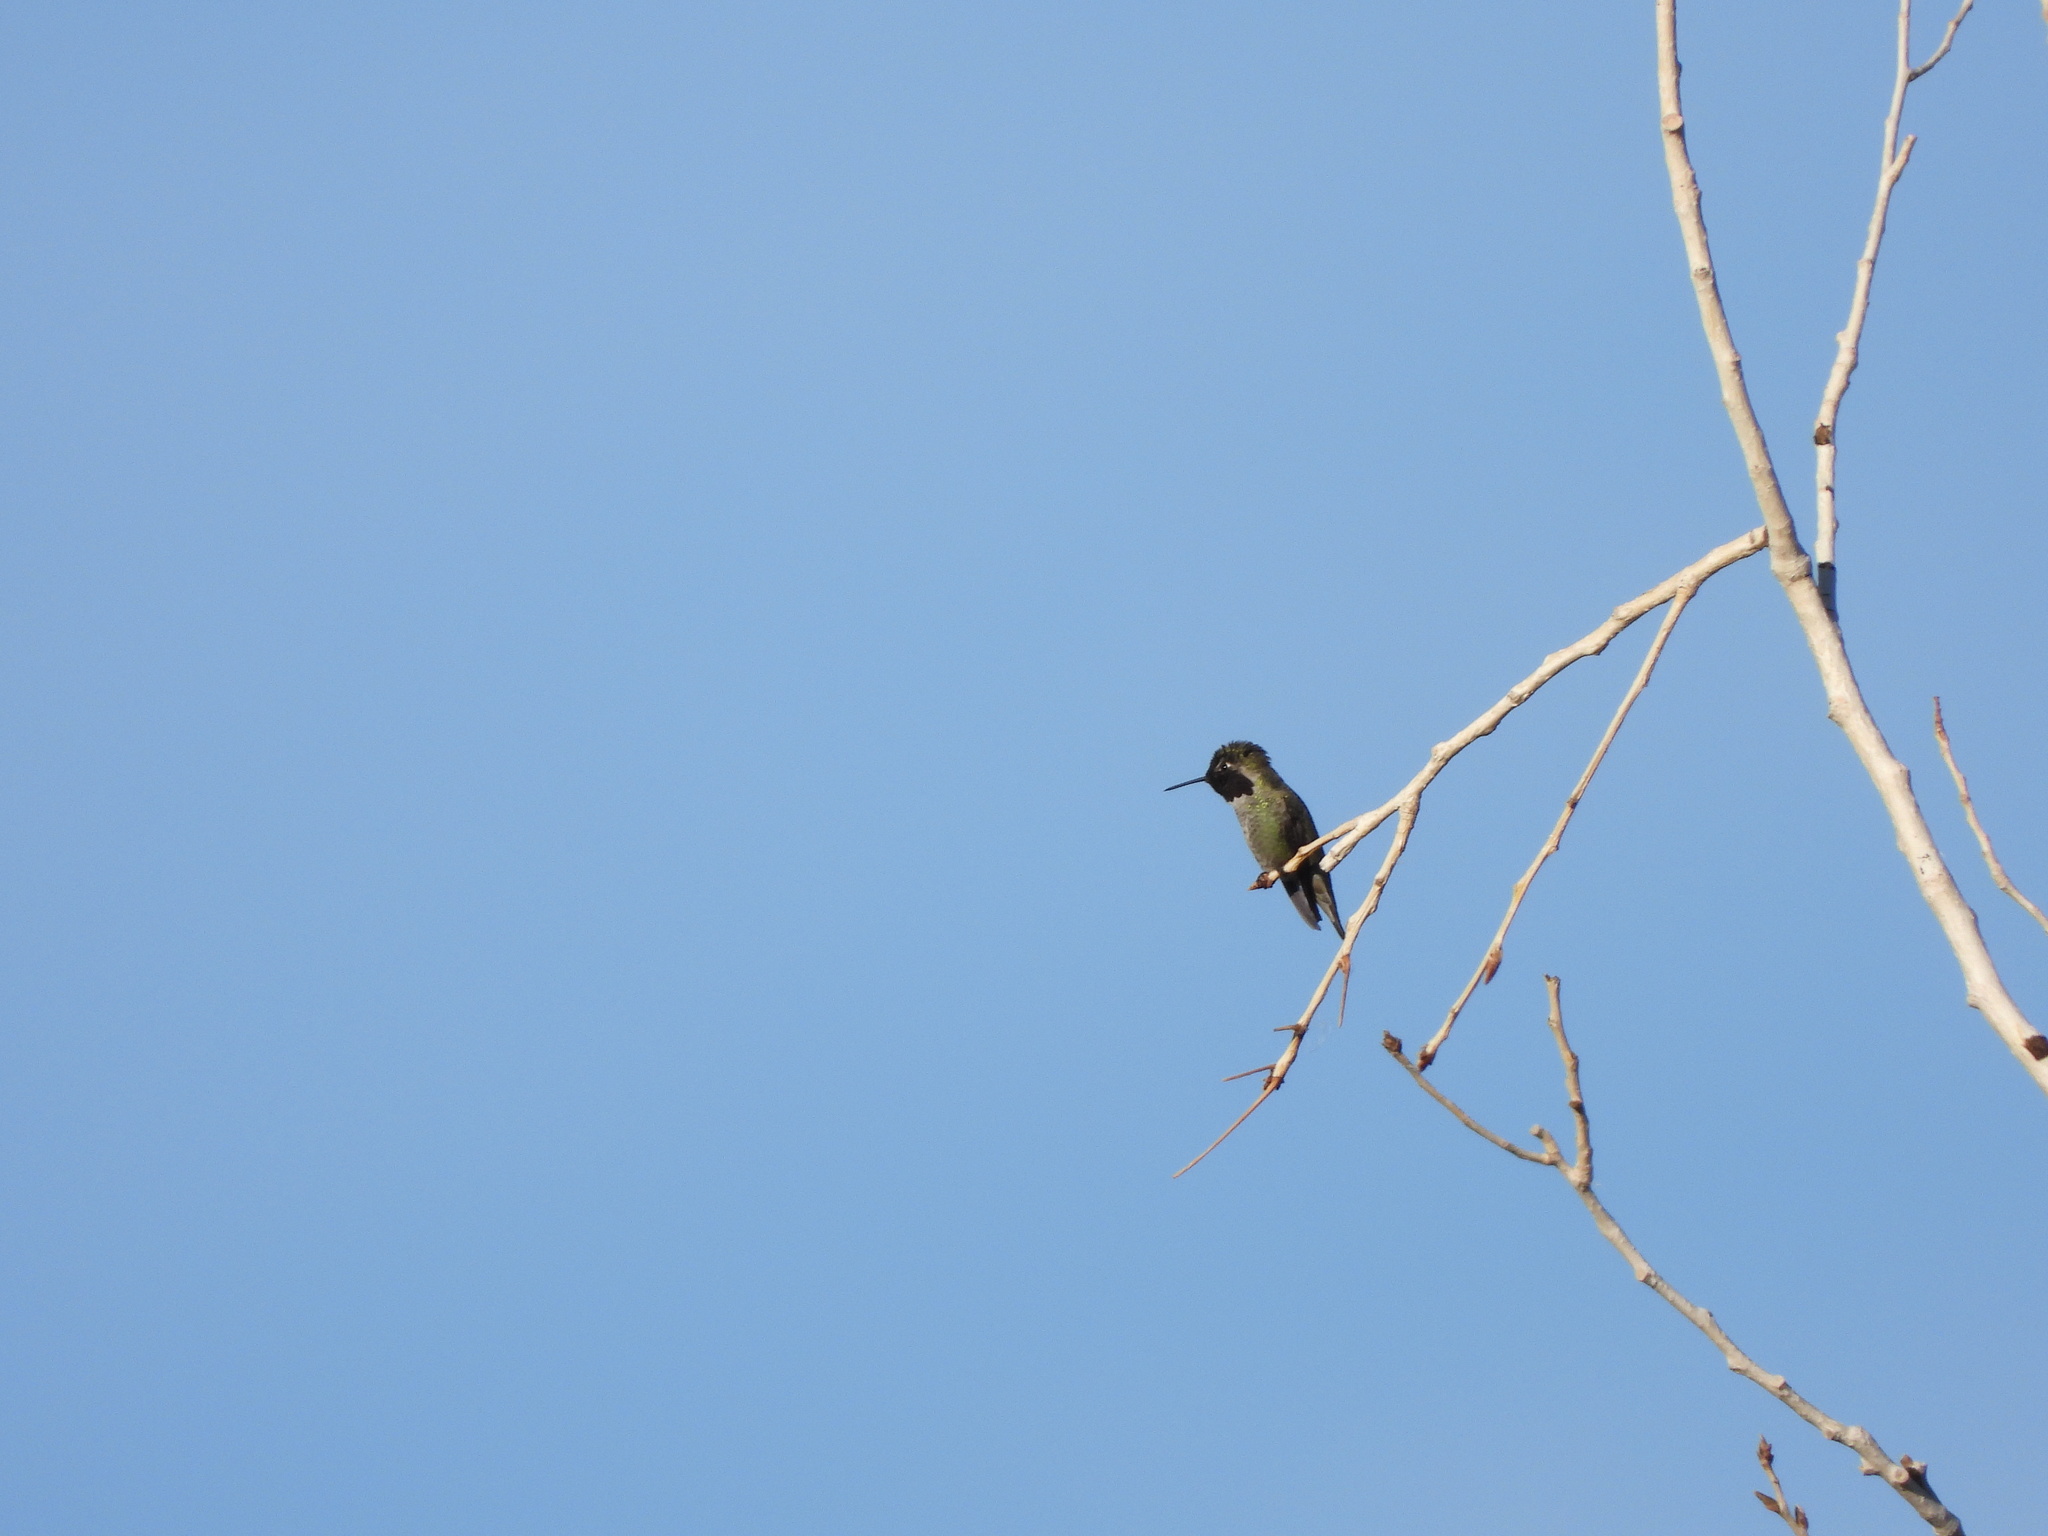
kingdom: Animalia
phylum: Chordata
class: Aves
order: Apodiformes
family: Trochilidae
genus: Calypte
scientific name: Calypte anna
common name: Anna's hummingbird
